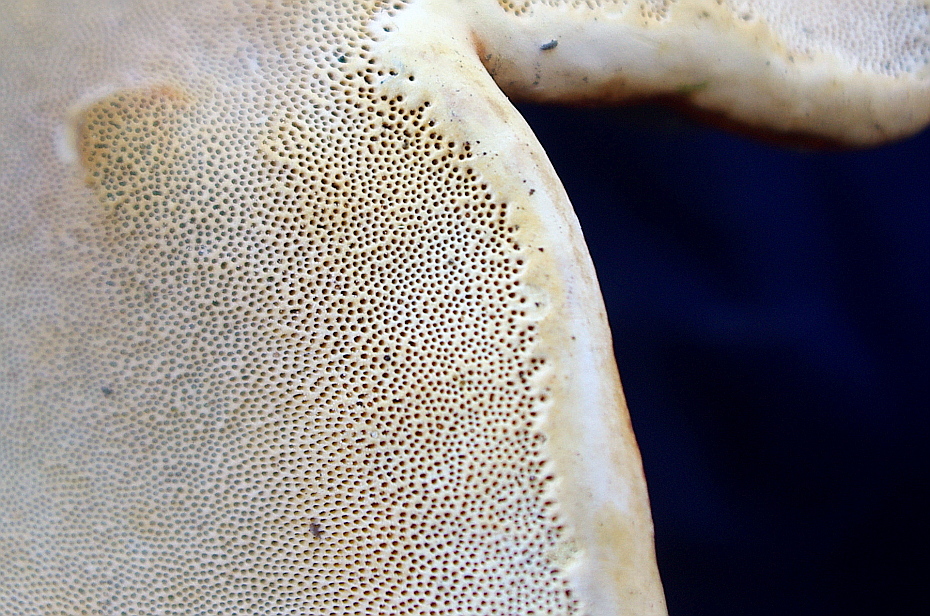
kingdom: Fungi
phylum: Basidiomycota
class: Agaricomycetes
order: Polyporales
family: Fomitopsidaceae
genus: Fomitopsis
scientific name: Fomitopsis pinicola
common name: Red-belted bracket
